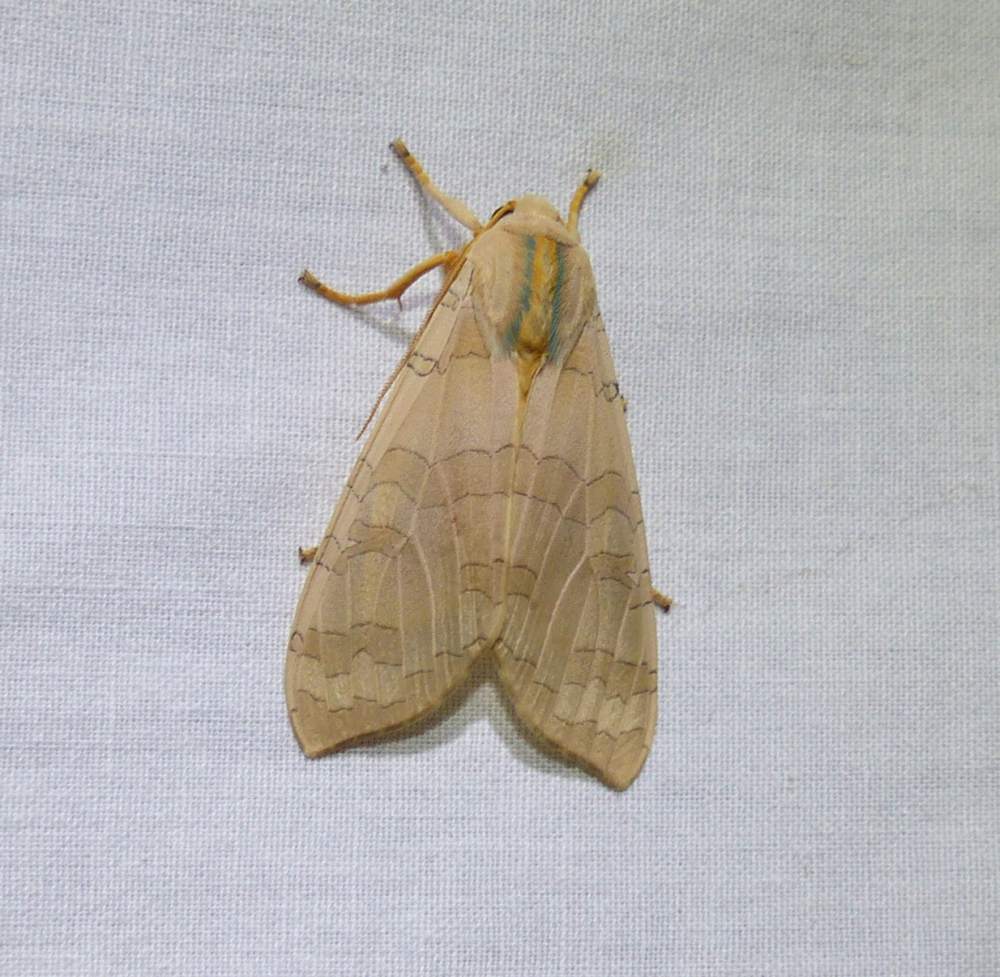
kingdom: Animalia
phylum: Arthropoda
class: Insecta
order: Lepidoptera
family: Erebidae
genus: Halysidota
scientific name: Halysidota tessellaris
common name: Banded tussock moth
